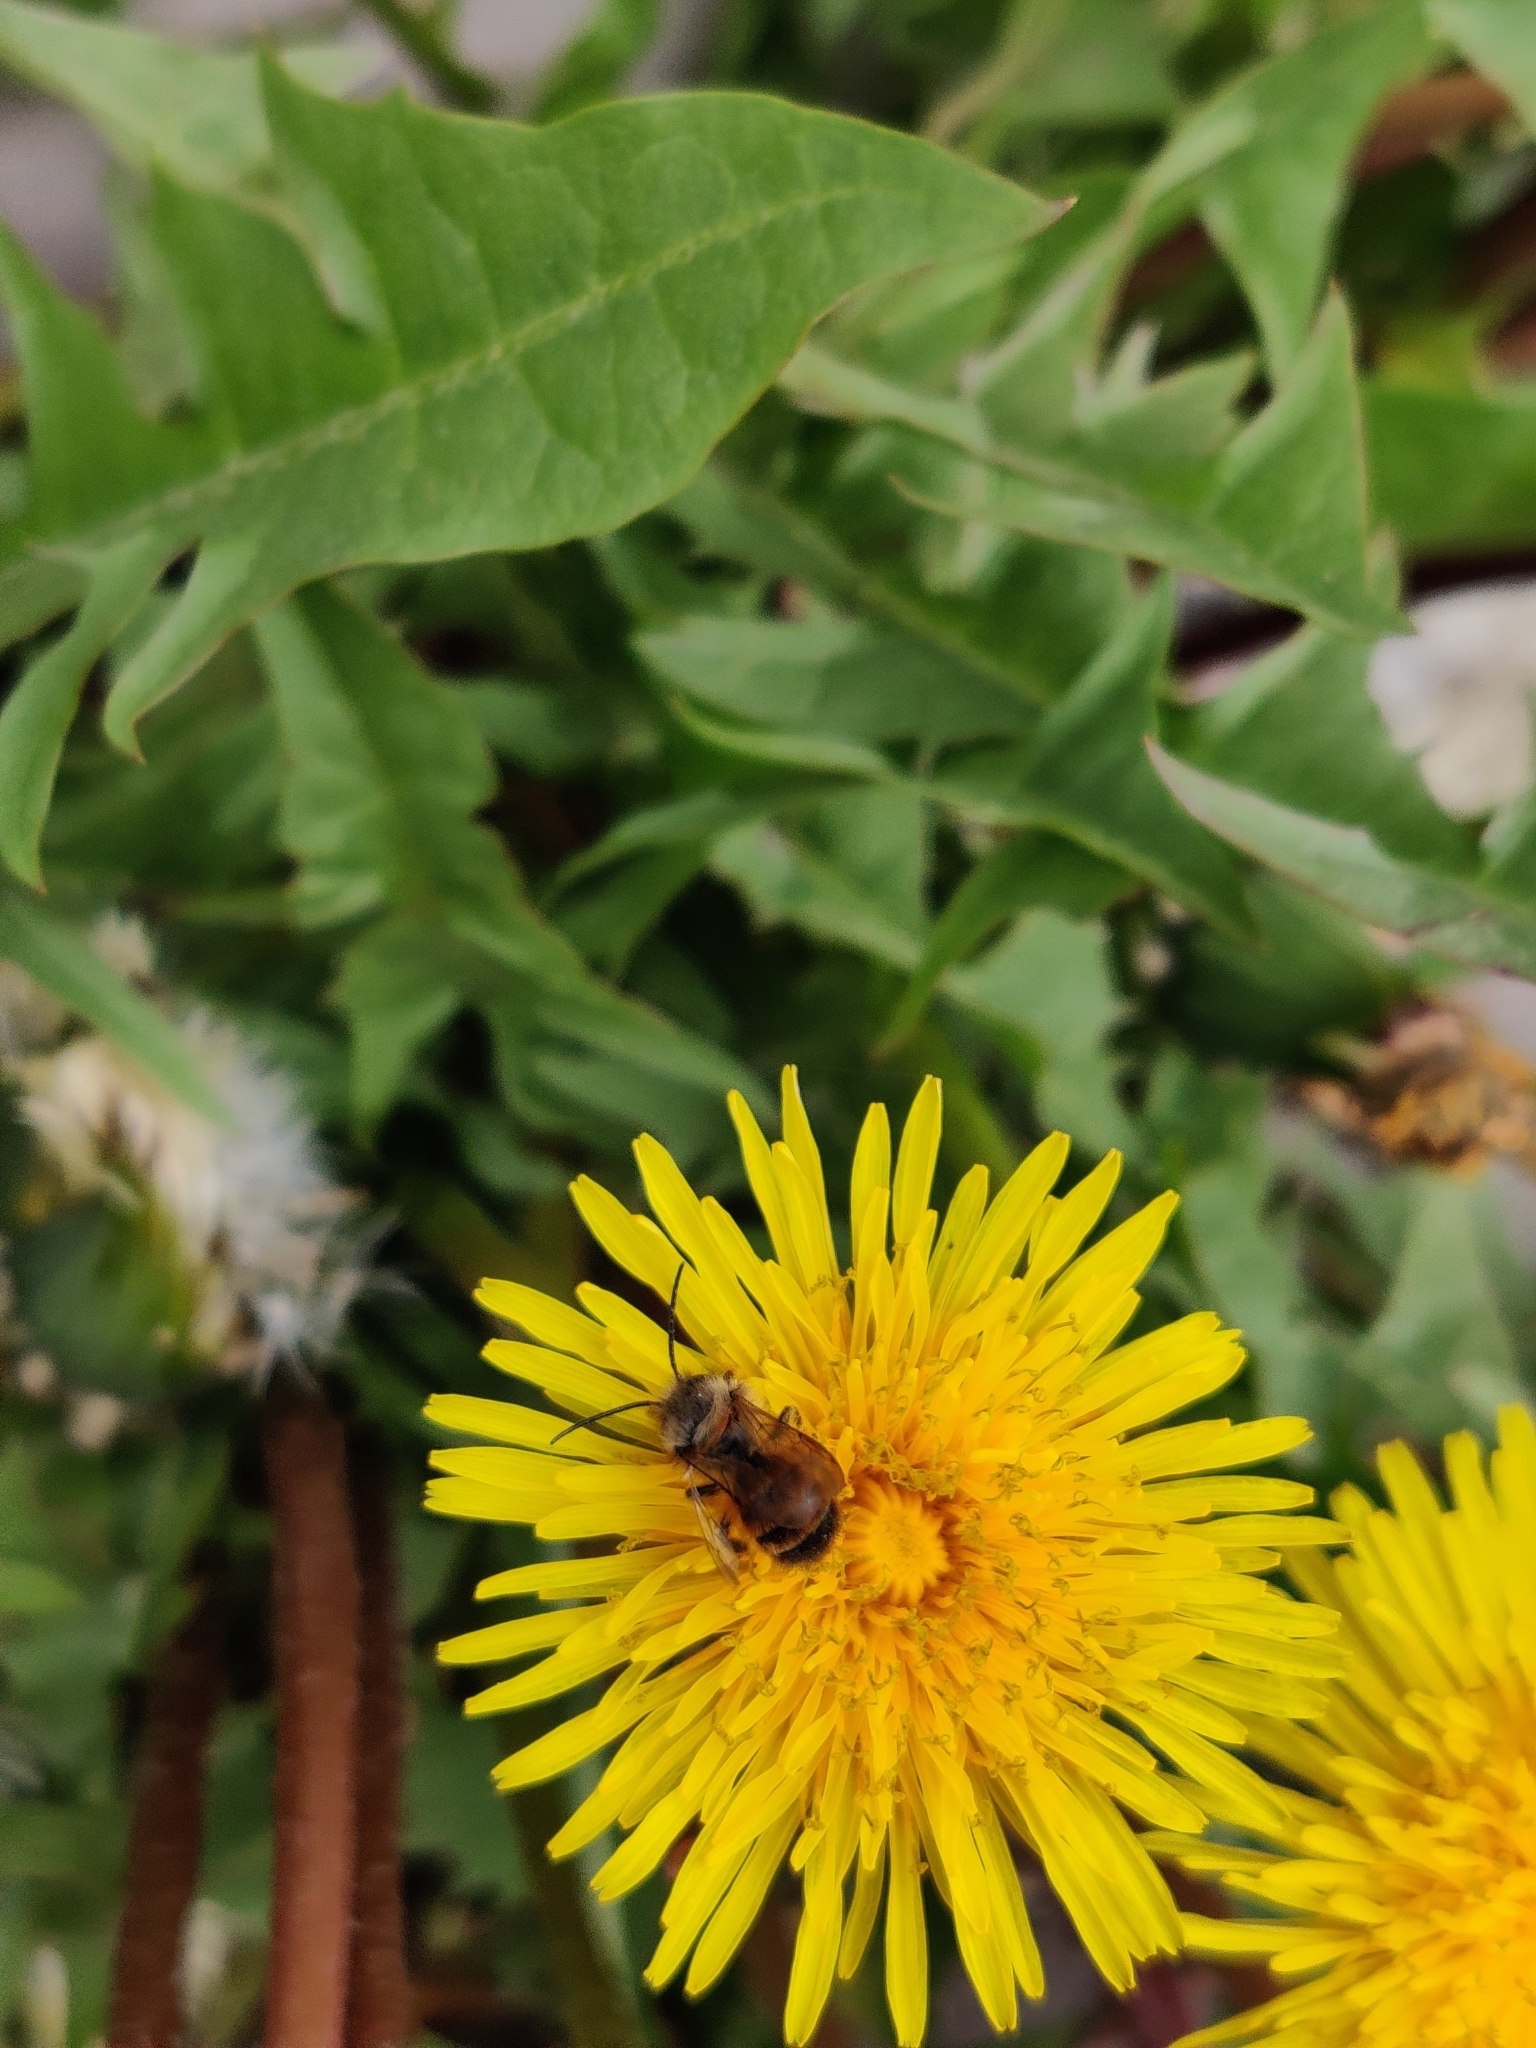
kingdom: Animalia
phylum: Arthropoda
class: Insecta
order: Hymenoptera
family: Megachilidae
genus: Osmia
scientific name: Osmia bicornis
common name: Red mason bee
